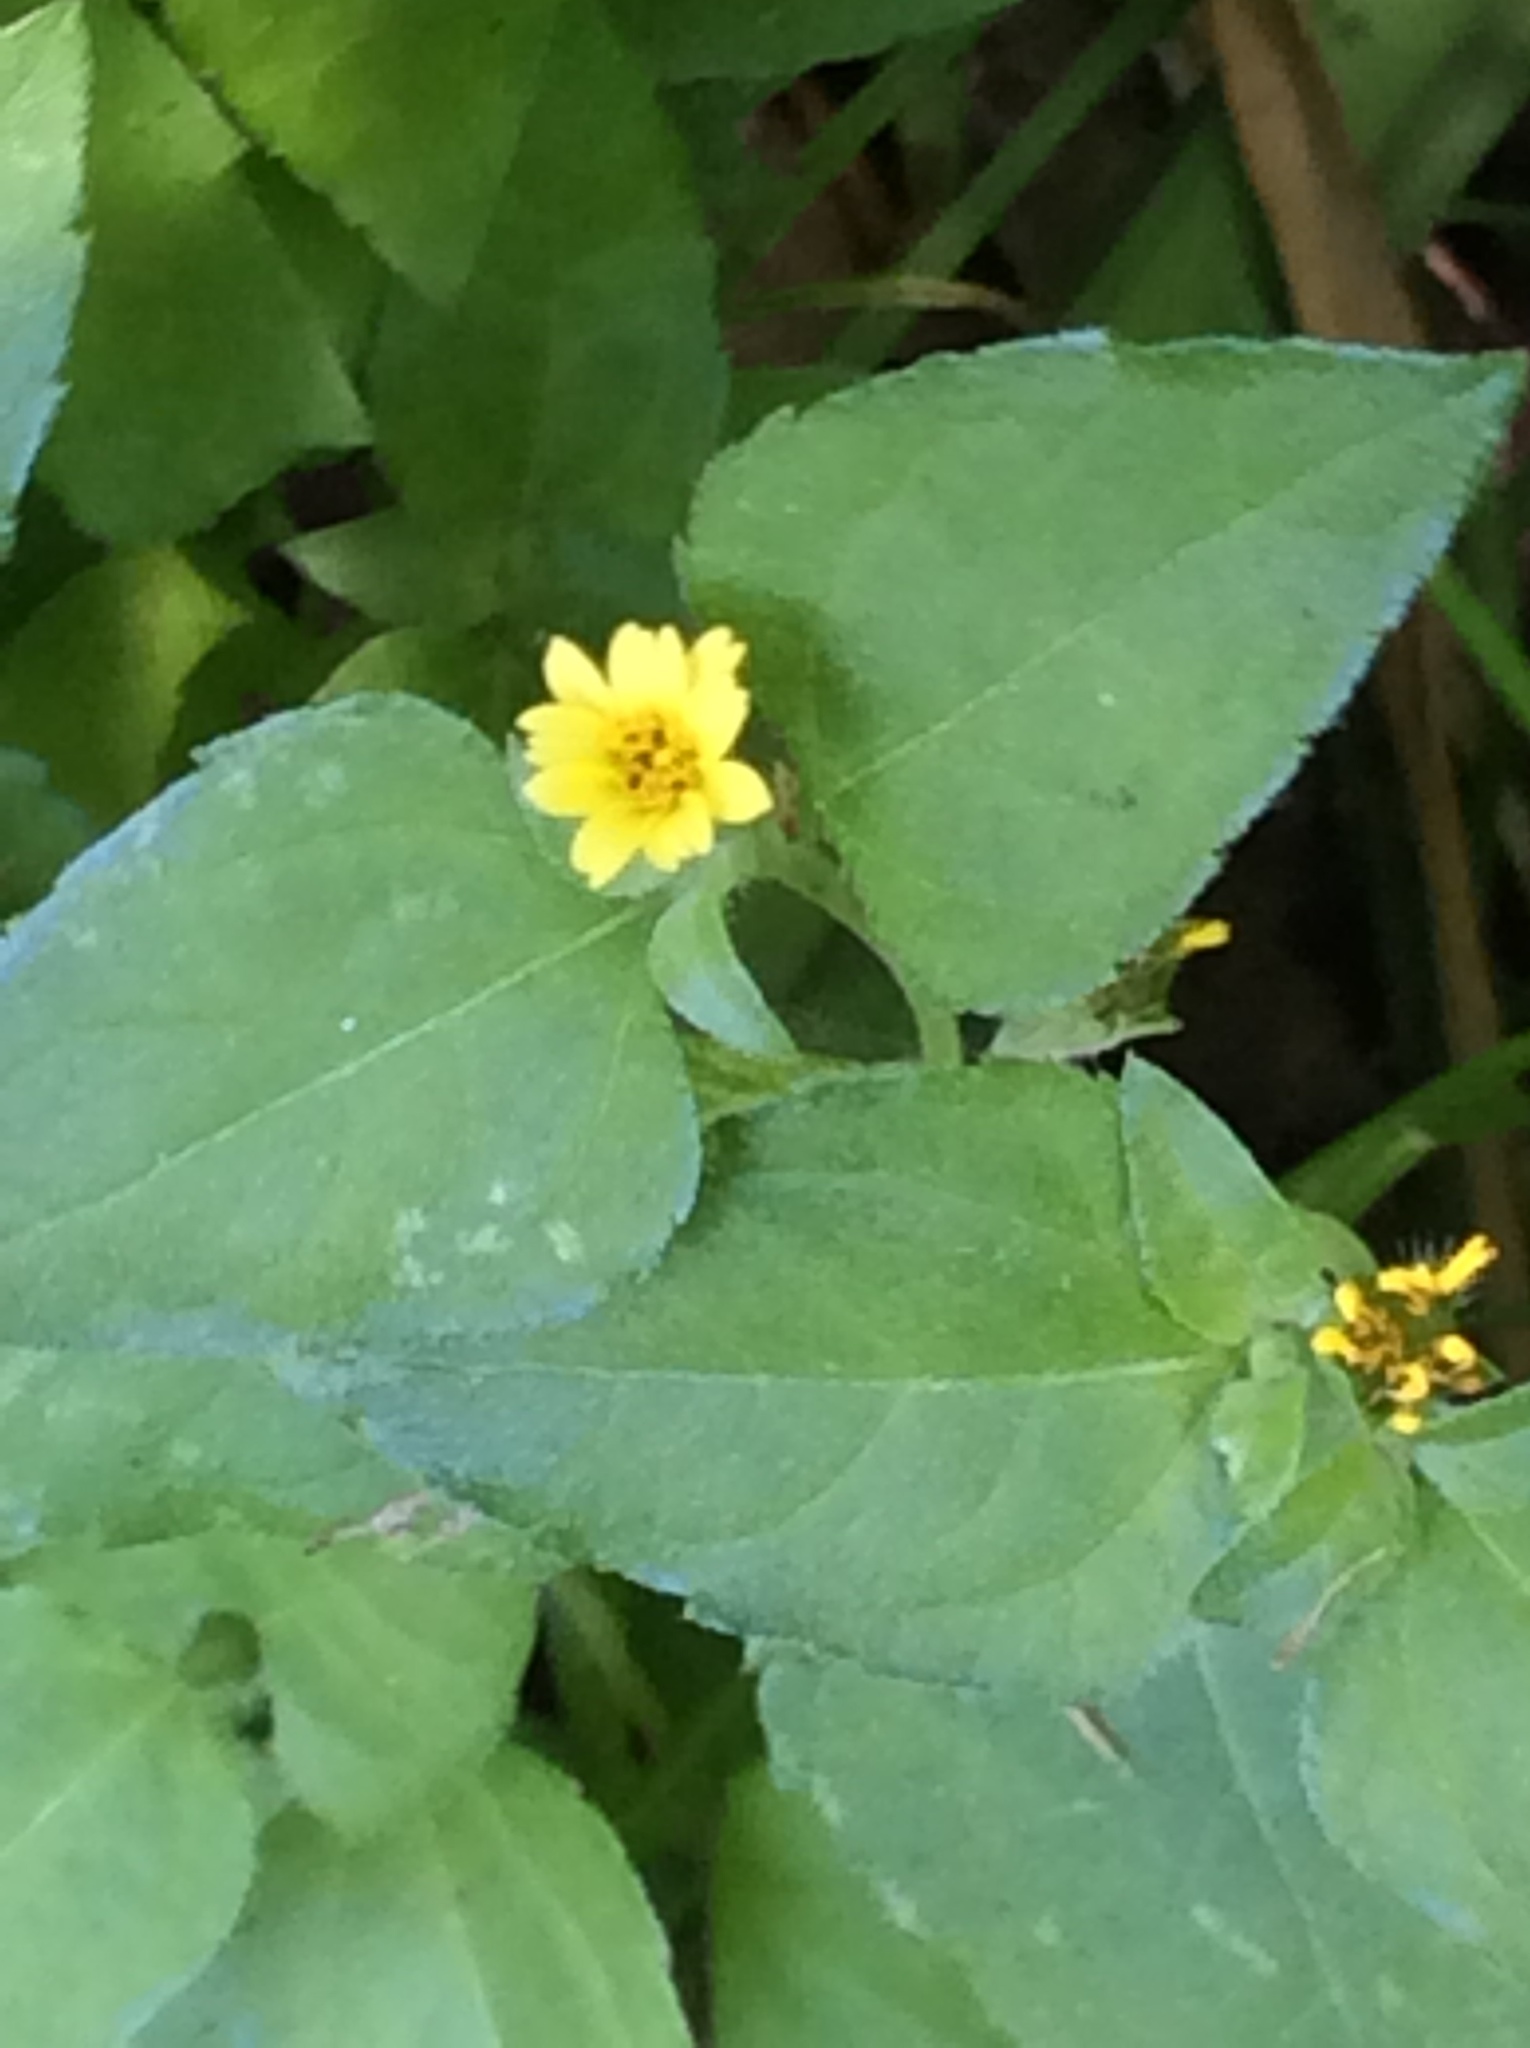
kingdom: Plantae
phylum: Tracheophyta
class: Magnoliopsida
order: Asterales
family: Asteraceae
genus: Calyptocarpus
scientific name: Calyptocarpus vialis
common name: Straggler daisy
